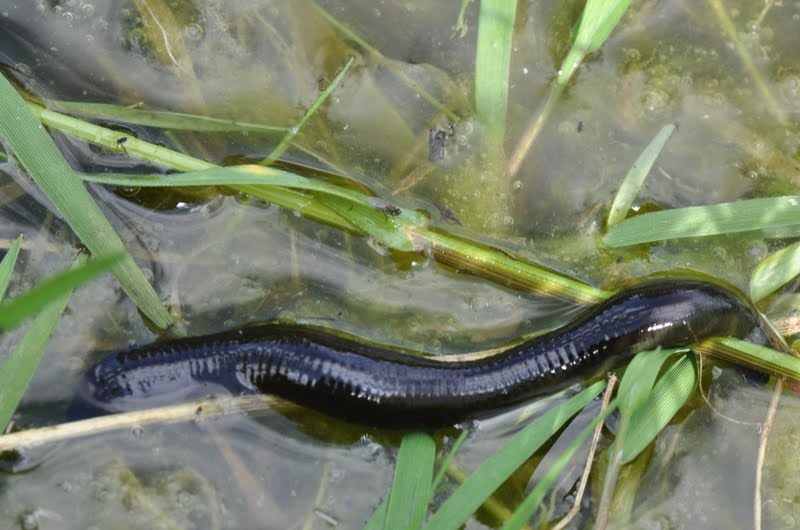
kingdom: Animalia
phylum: Annelida
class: Clitellata
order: Arhynchobdellida
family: Haemopidae
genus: Haemopis
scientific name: Haemopis sanguisuga
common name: Horse leech
